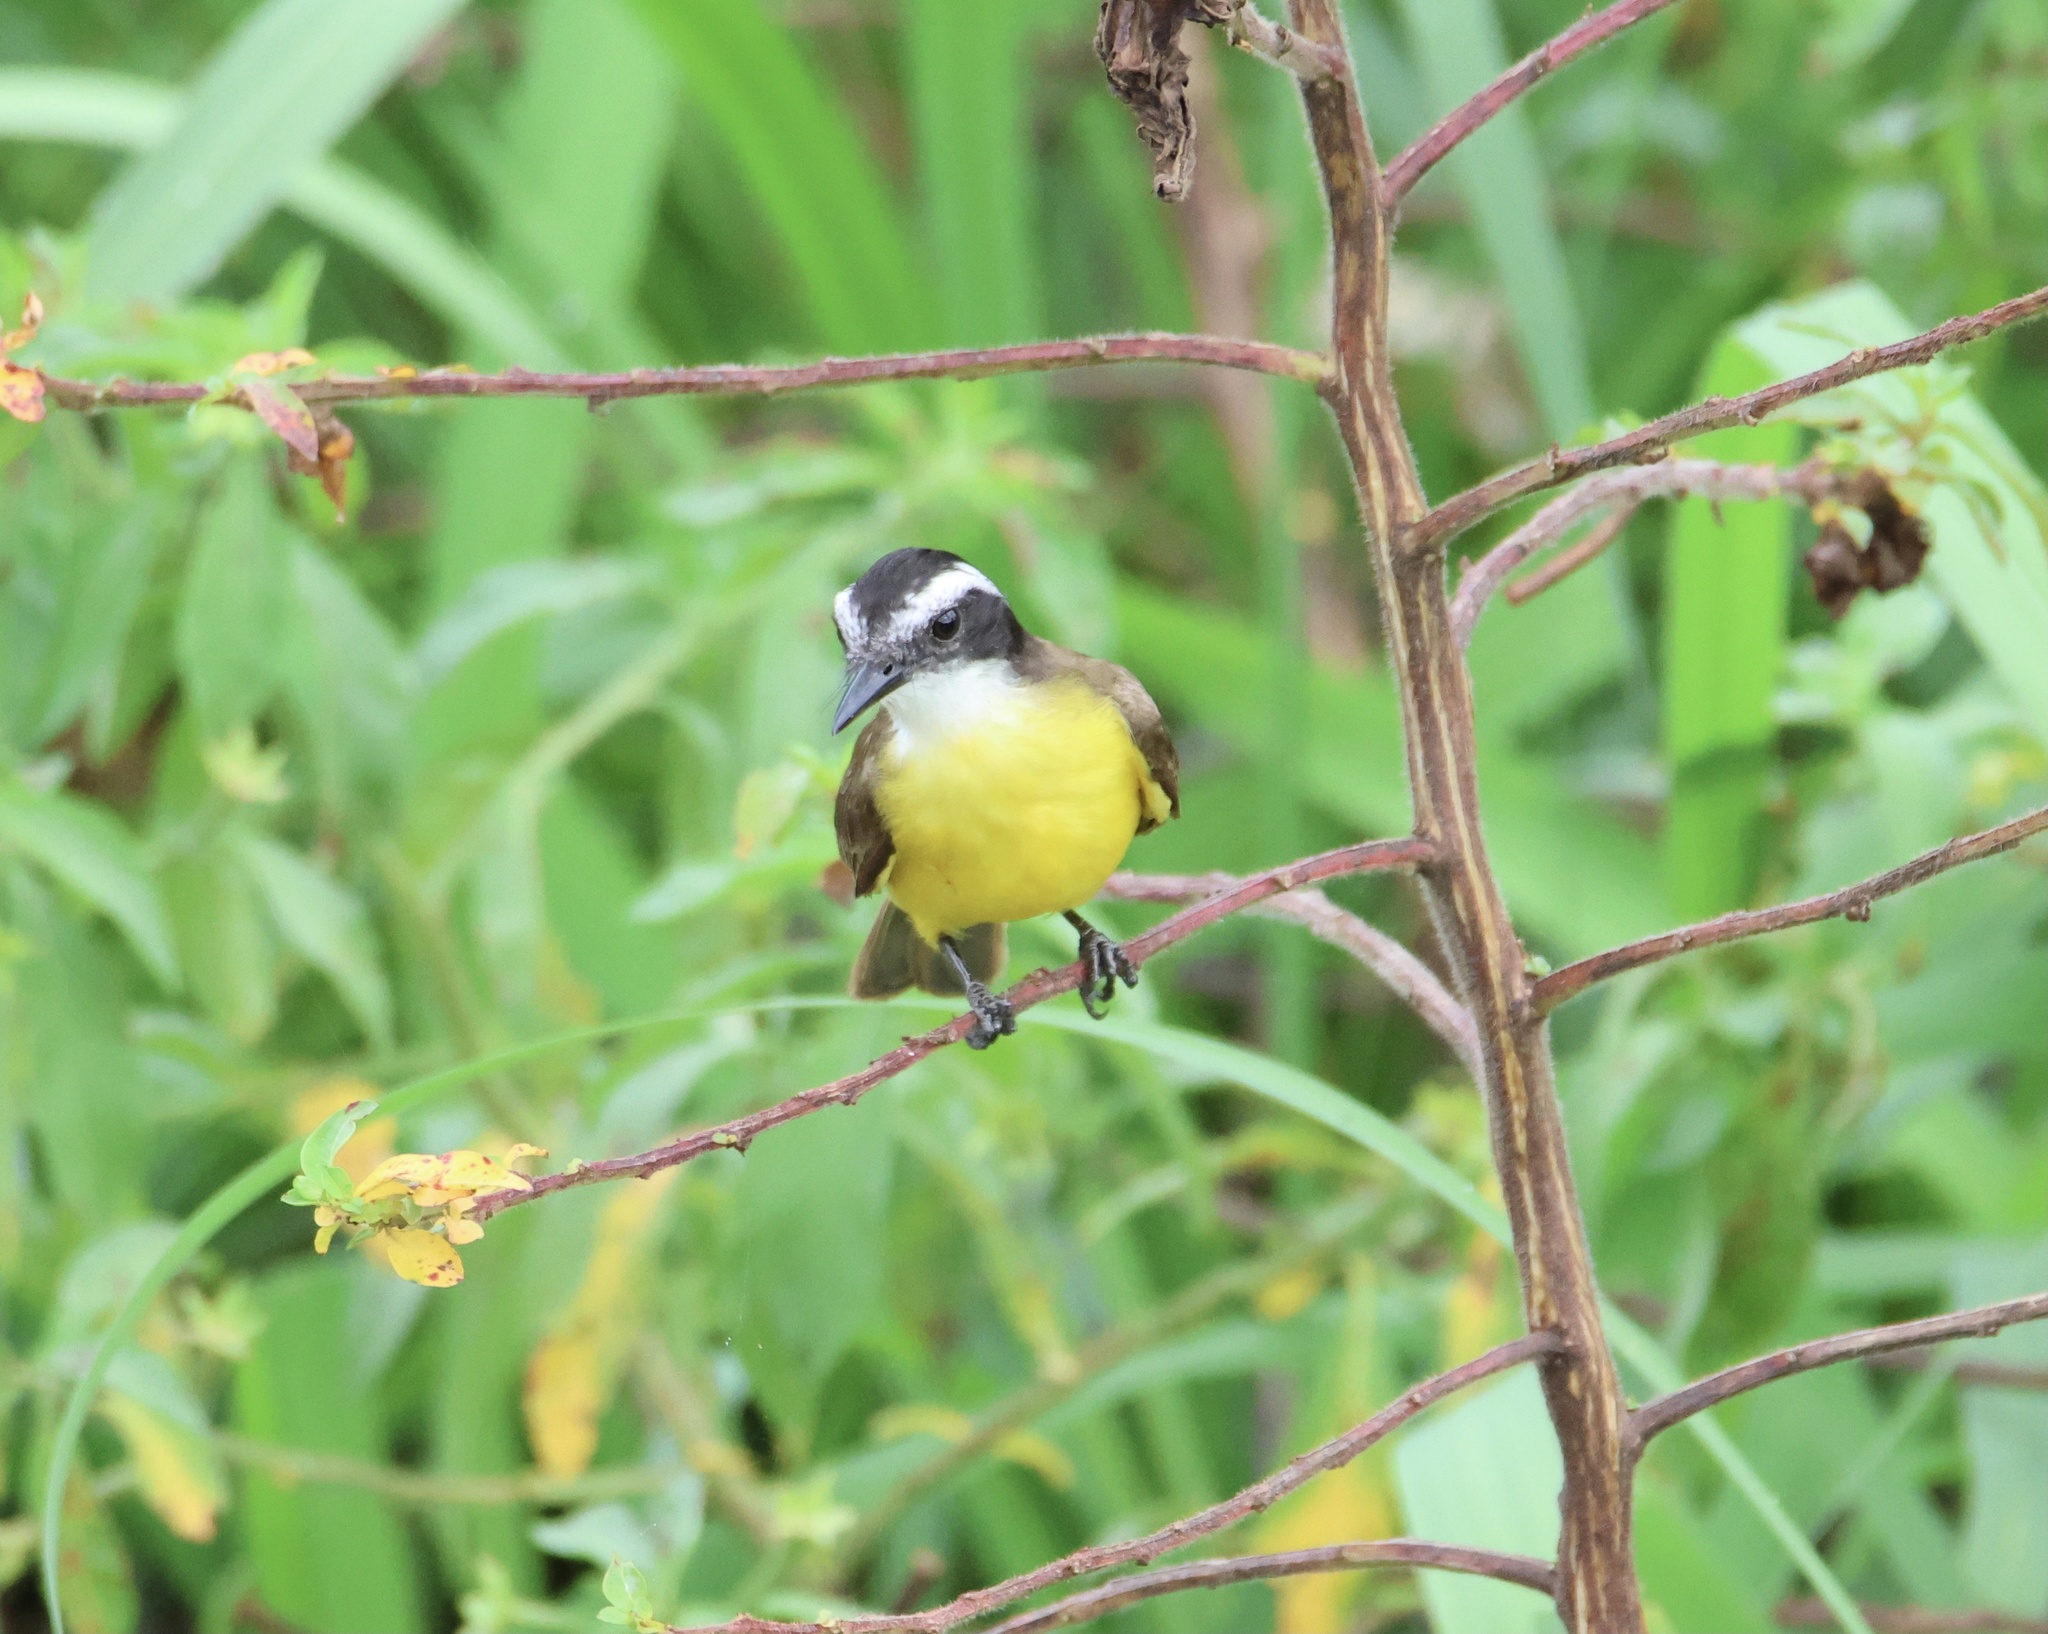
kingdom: Animalia
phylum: Chordata
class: Aves
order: Passeriformes
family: Tyrannidae
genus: Pitangus
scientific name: Pitangus lictor
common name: Lesser kiskadee
